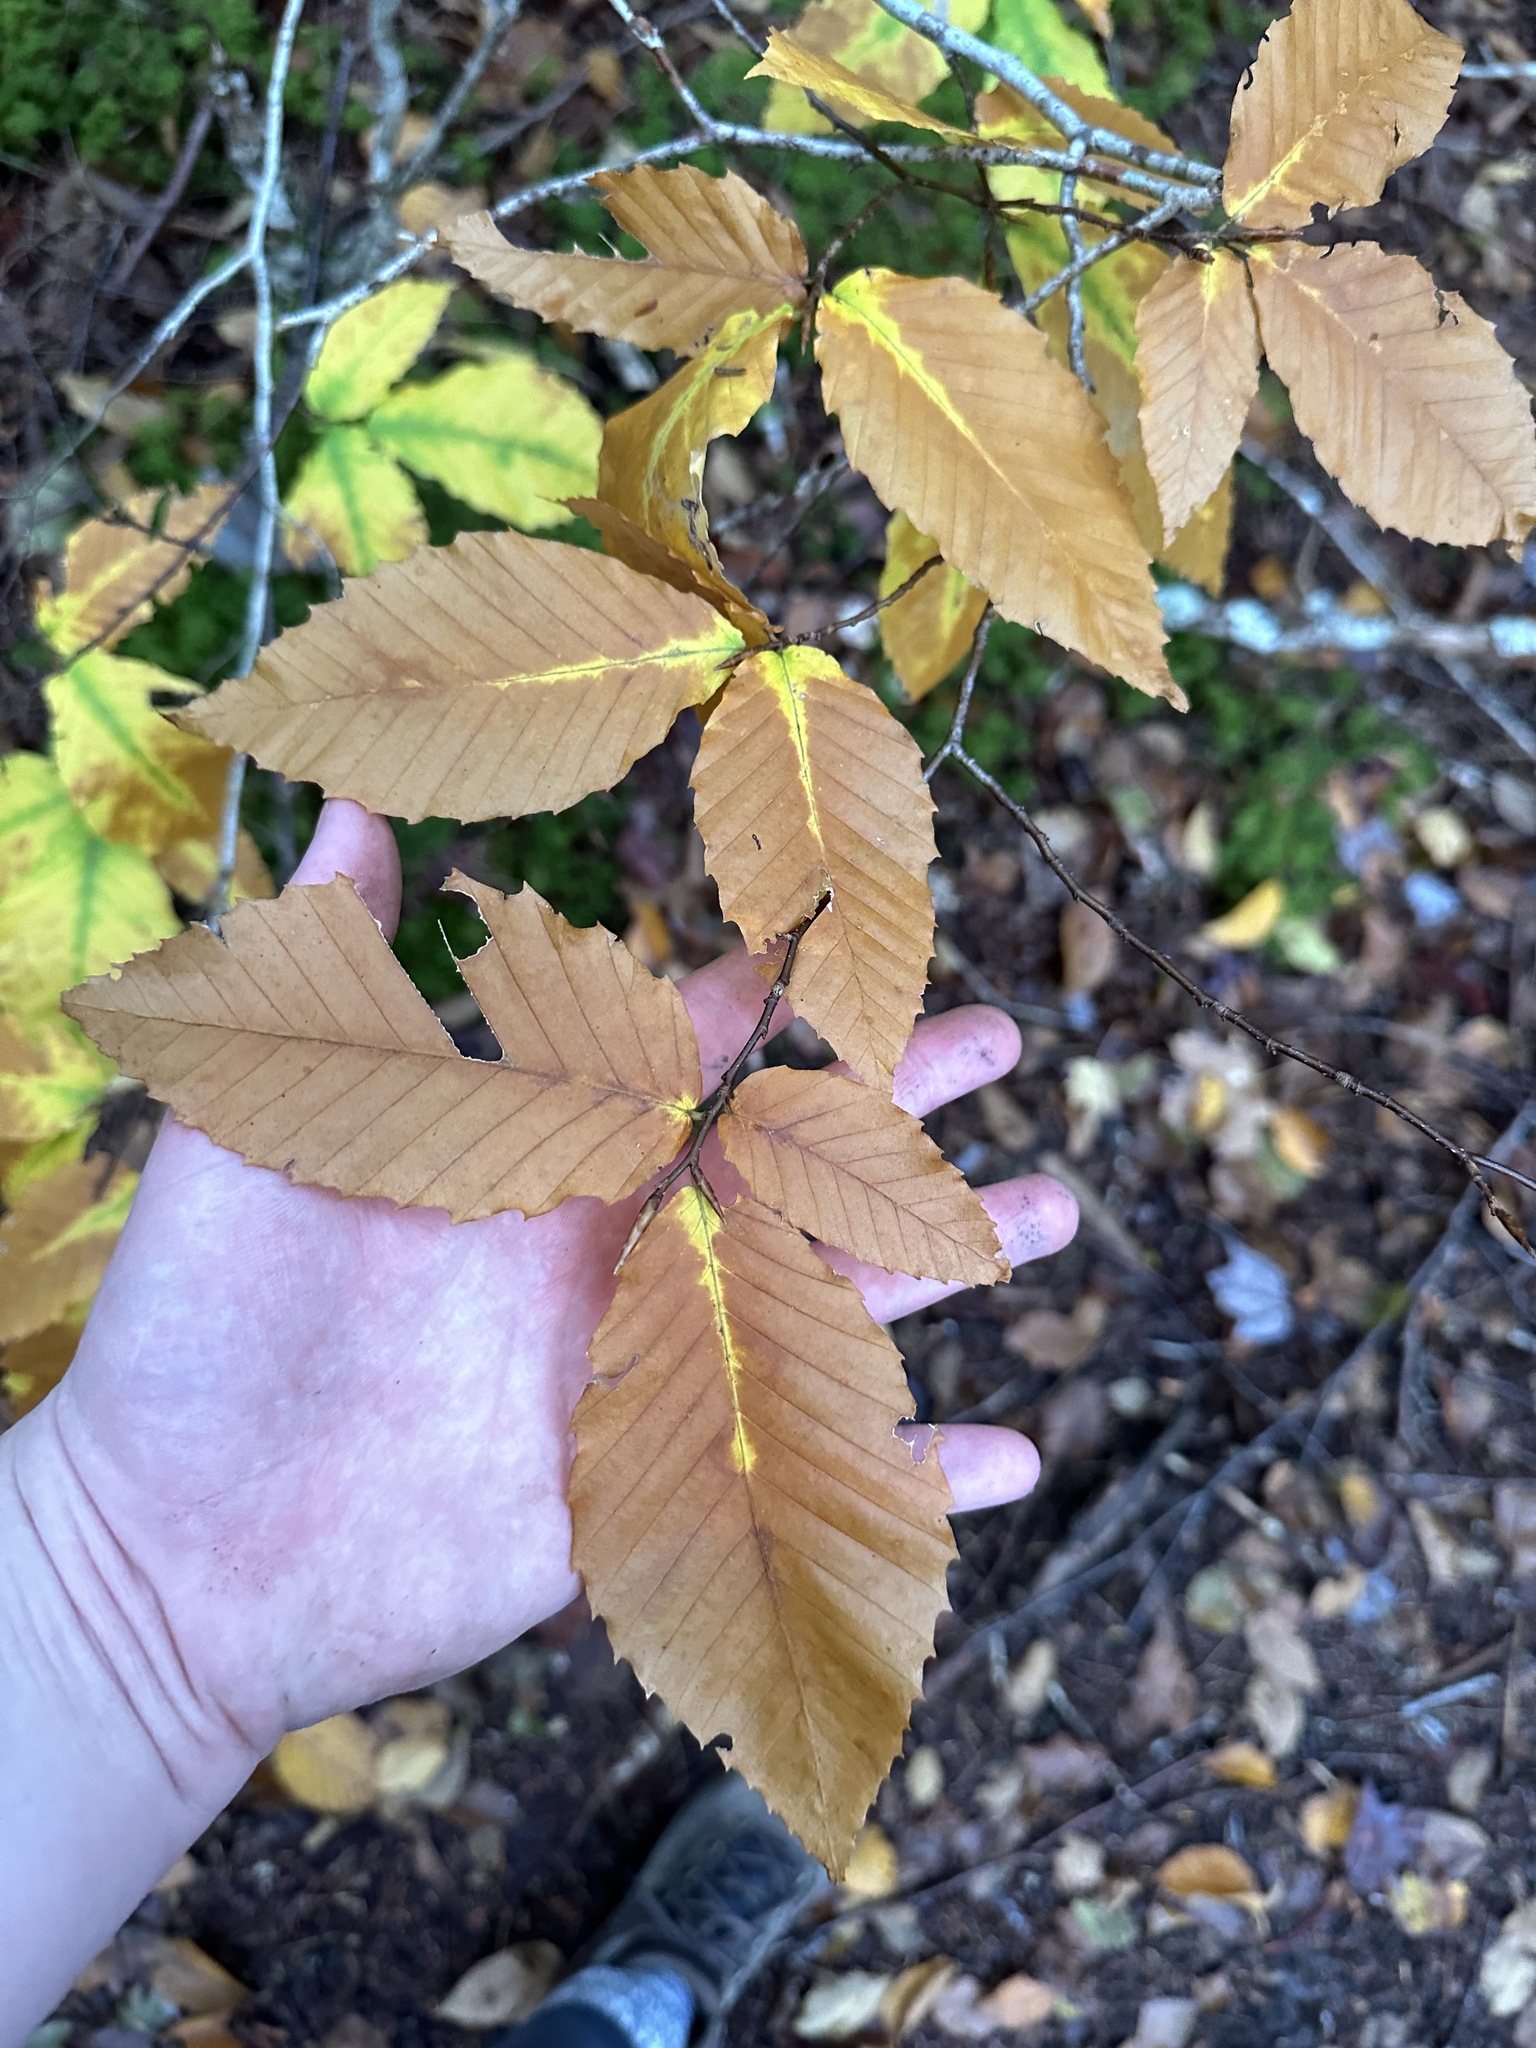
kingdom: Plantae
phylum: Tracheophyta
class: Magnoliopsida
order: Fagales
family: Fagaceae
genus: Fagus
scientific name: Fagus grandifolia
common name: American beech
